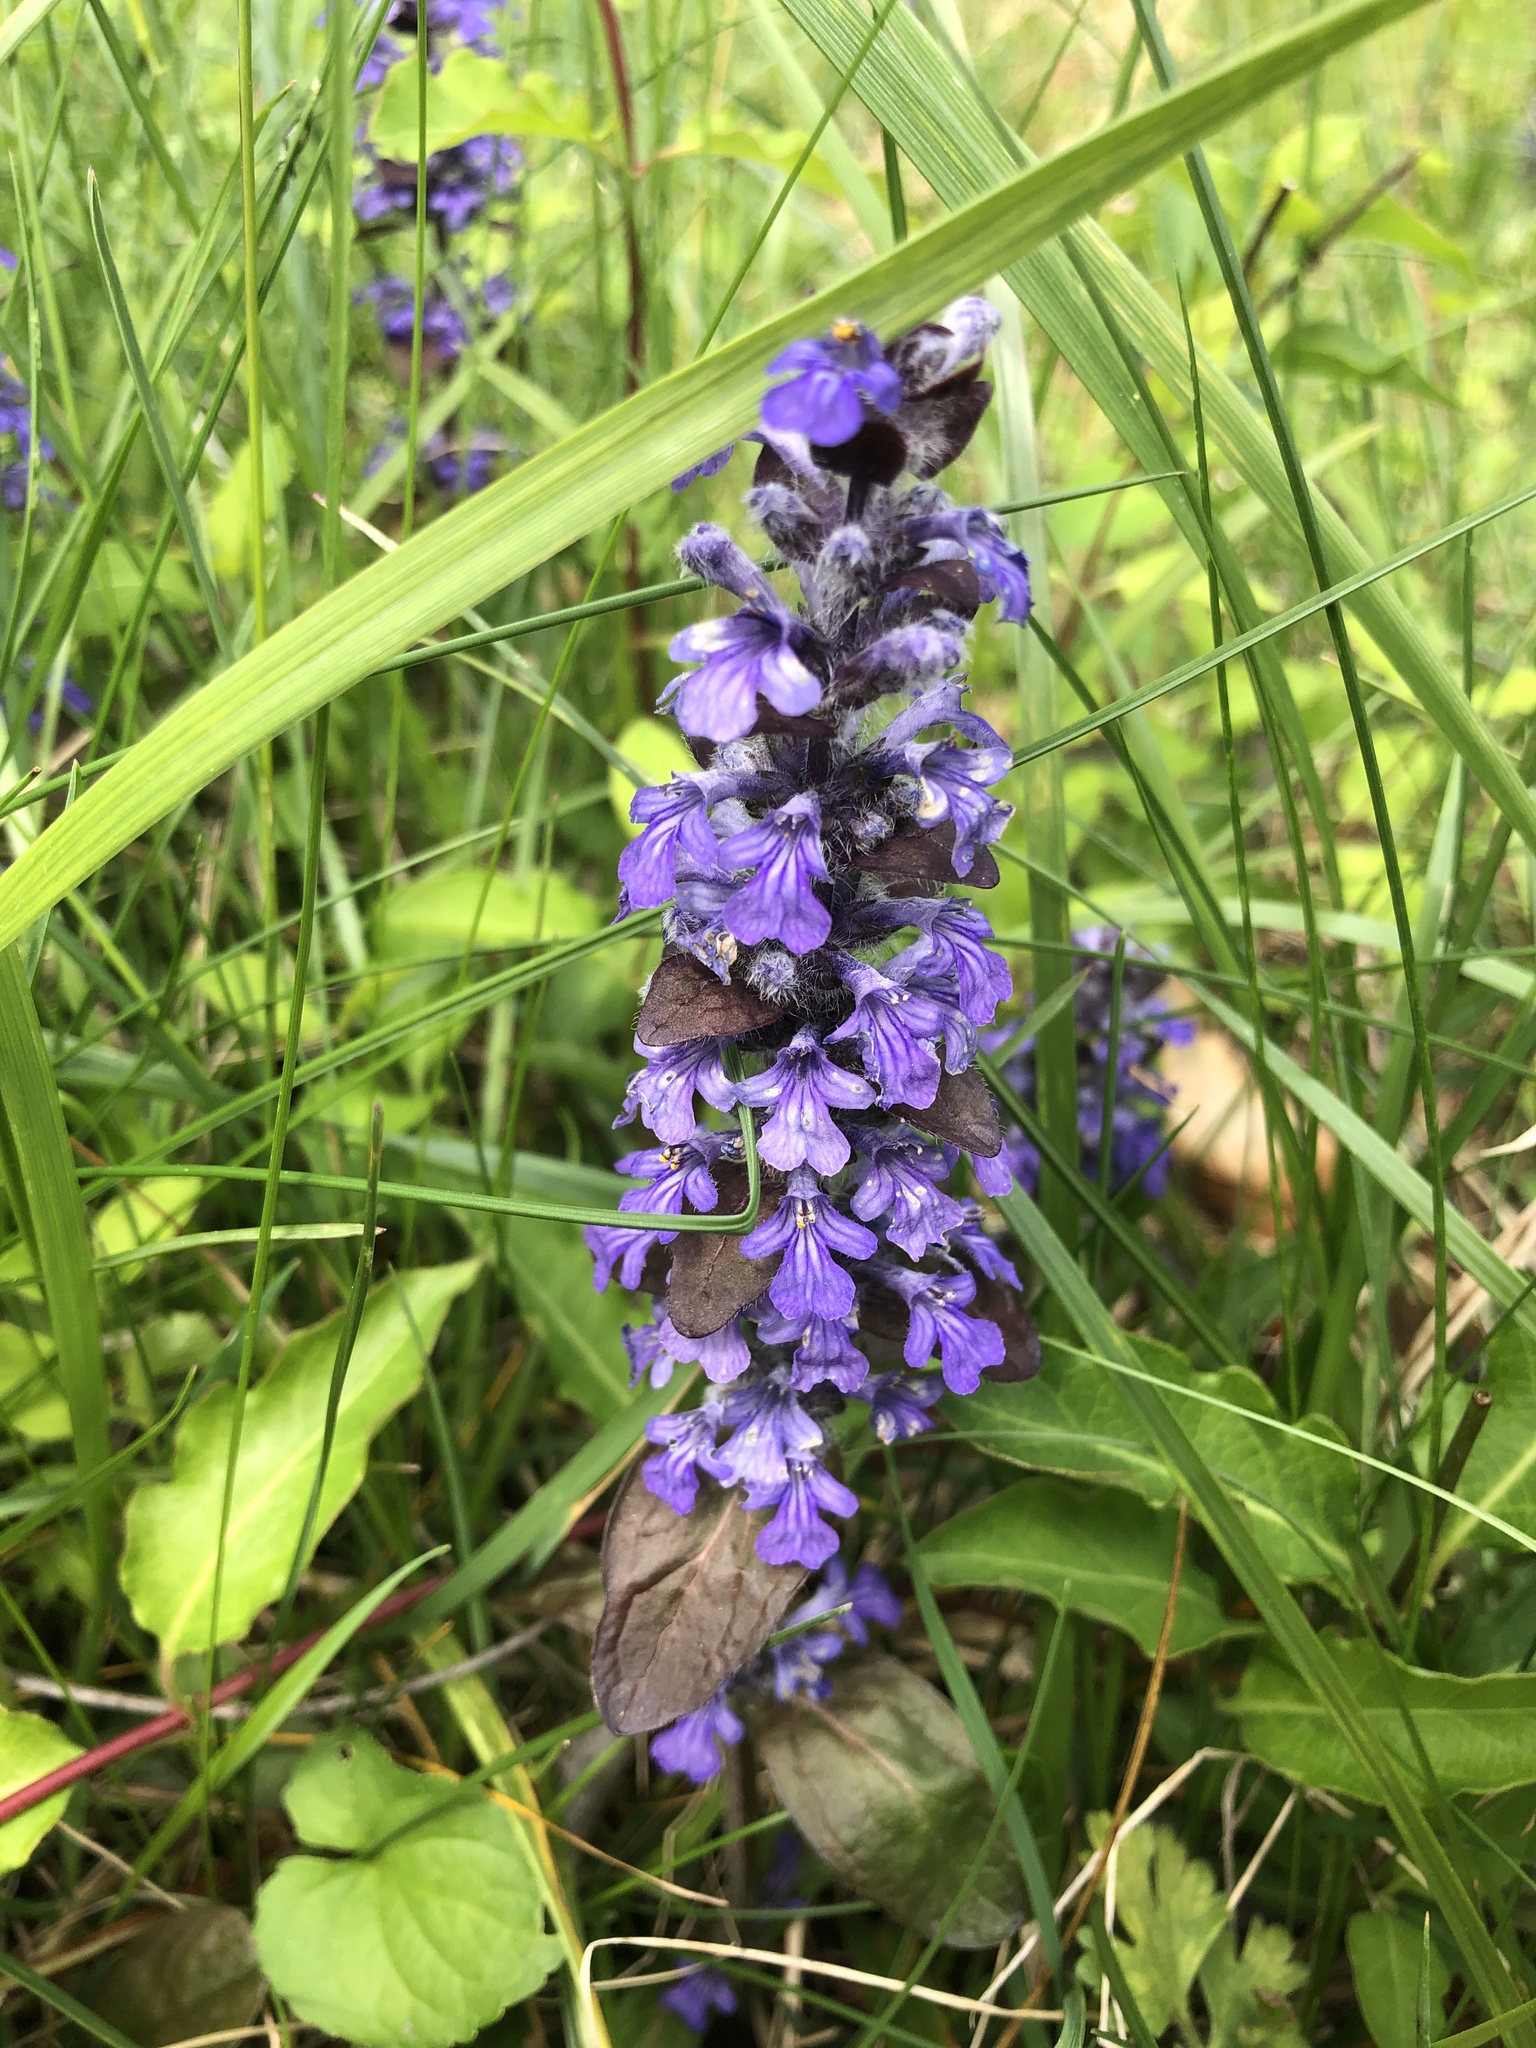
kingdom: Plantae
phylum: Tracheophyta
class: Magnoliopsida
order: Lamiales
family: Lamiaceae
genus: Ajuga
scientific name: Ajuga reptans
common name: Bugle
